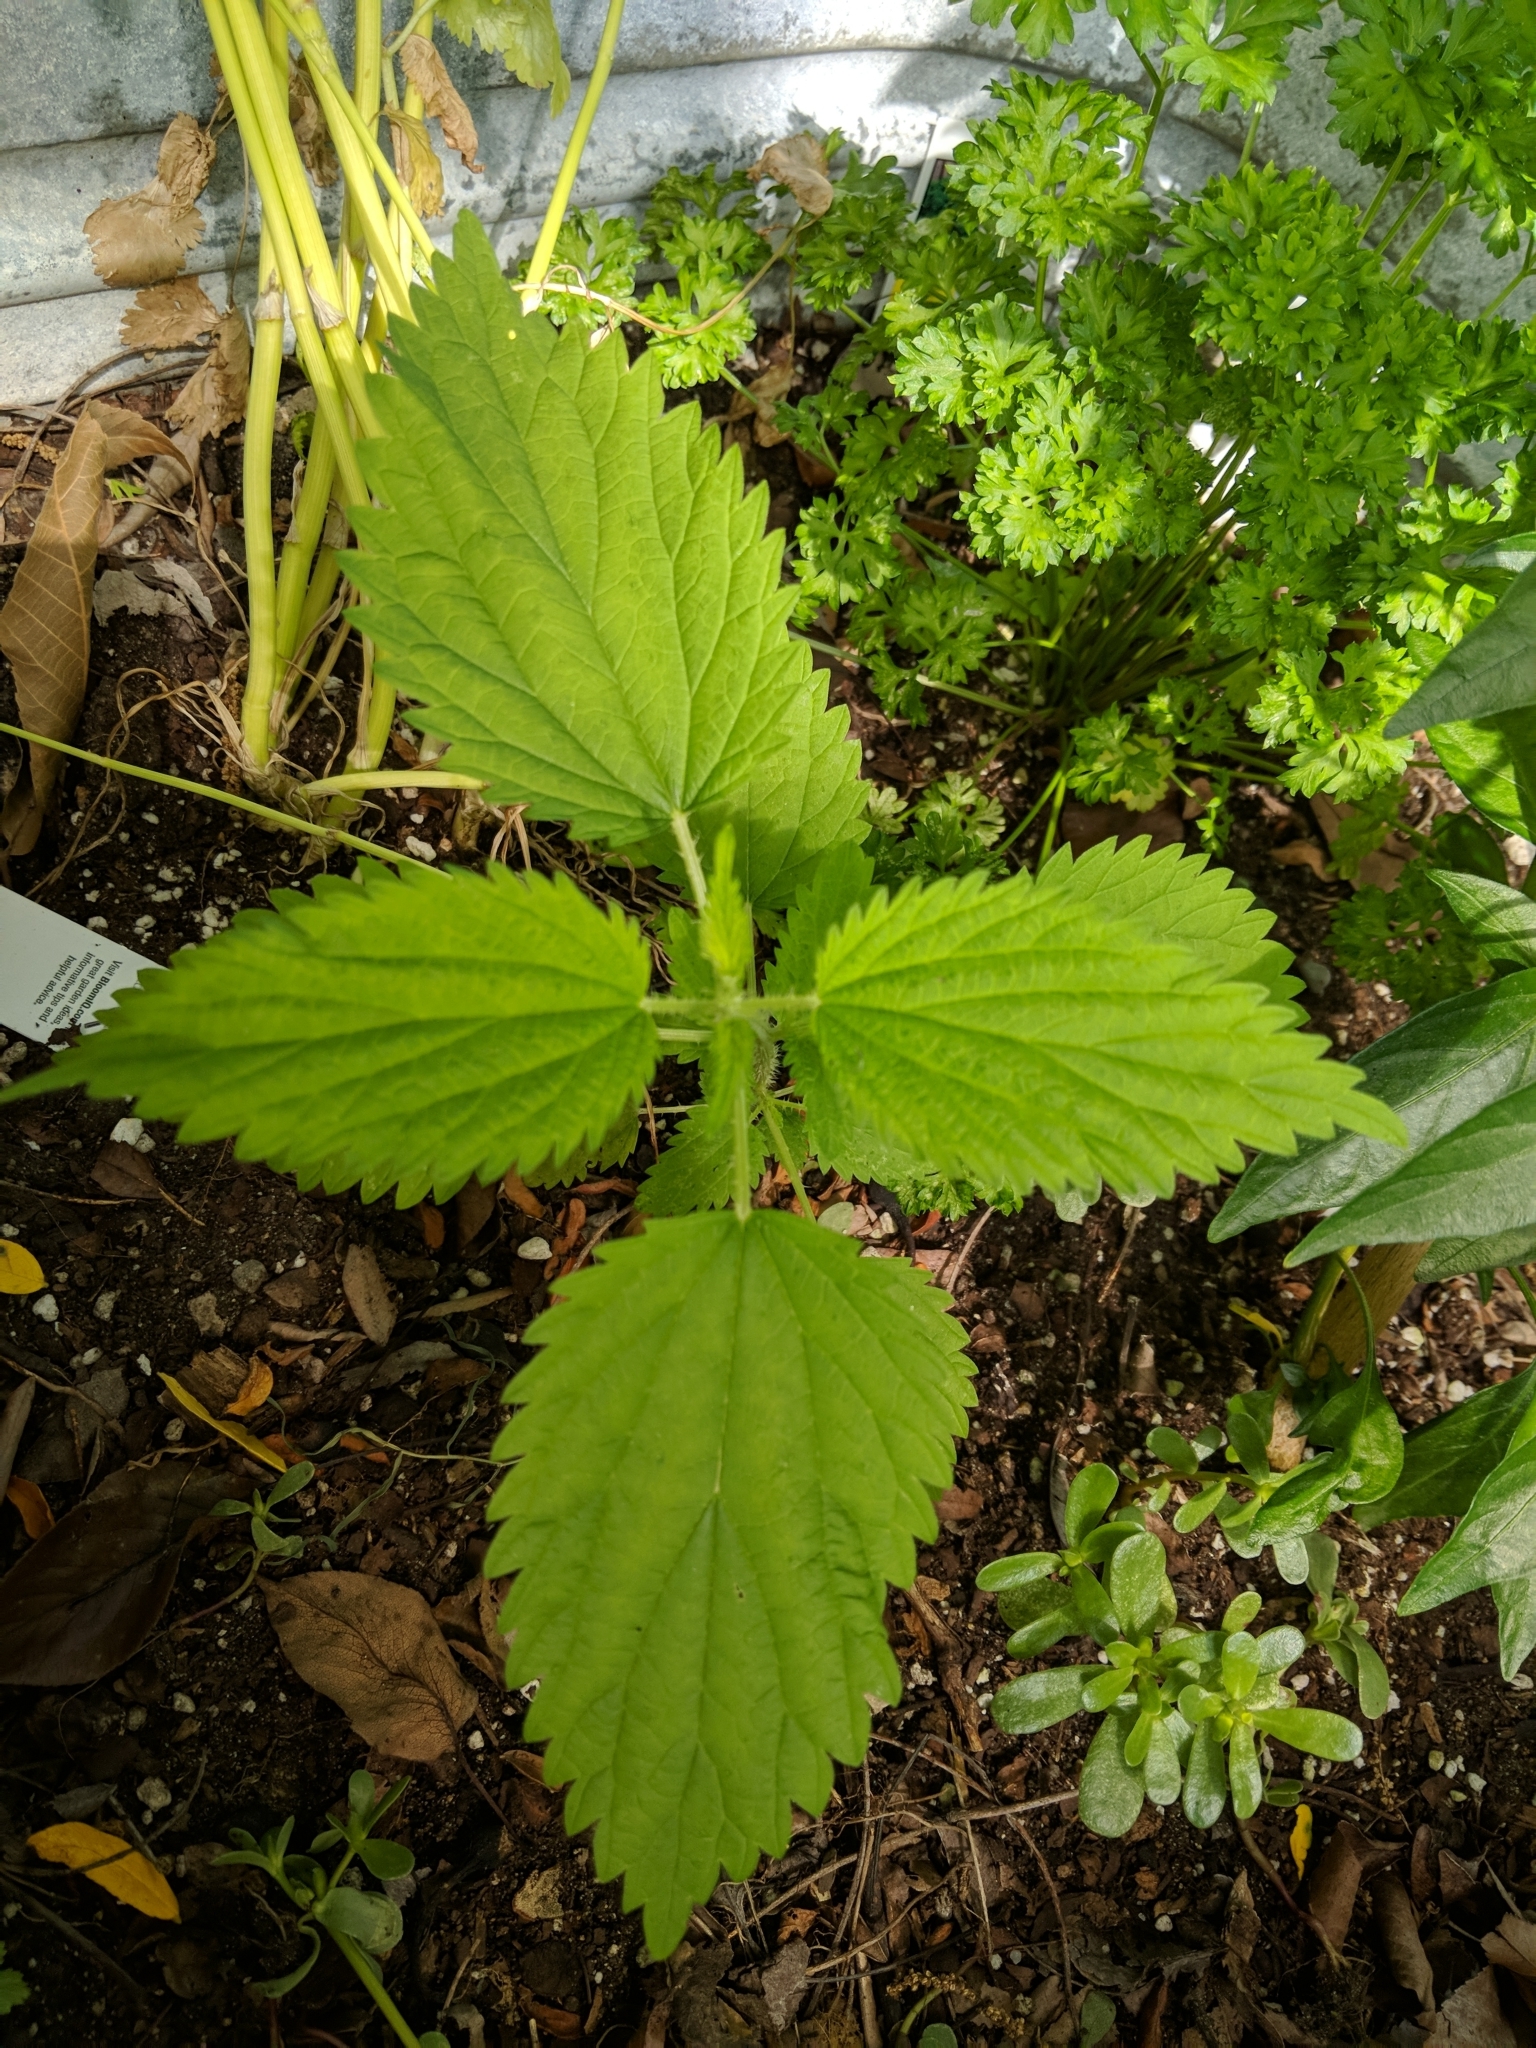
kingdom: Plantae
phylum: Tracheophyta
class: Magnoliopsida
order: Rosales
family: Urticaceae
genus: Urtica
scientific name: Urtica dioica
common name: Common nettle
